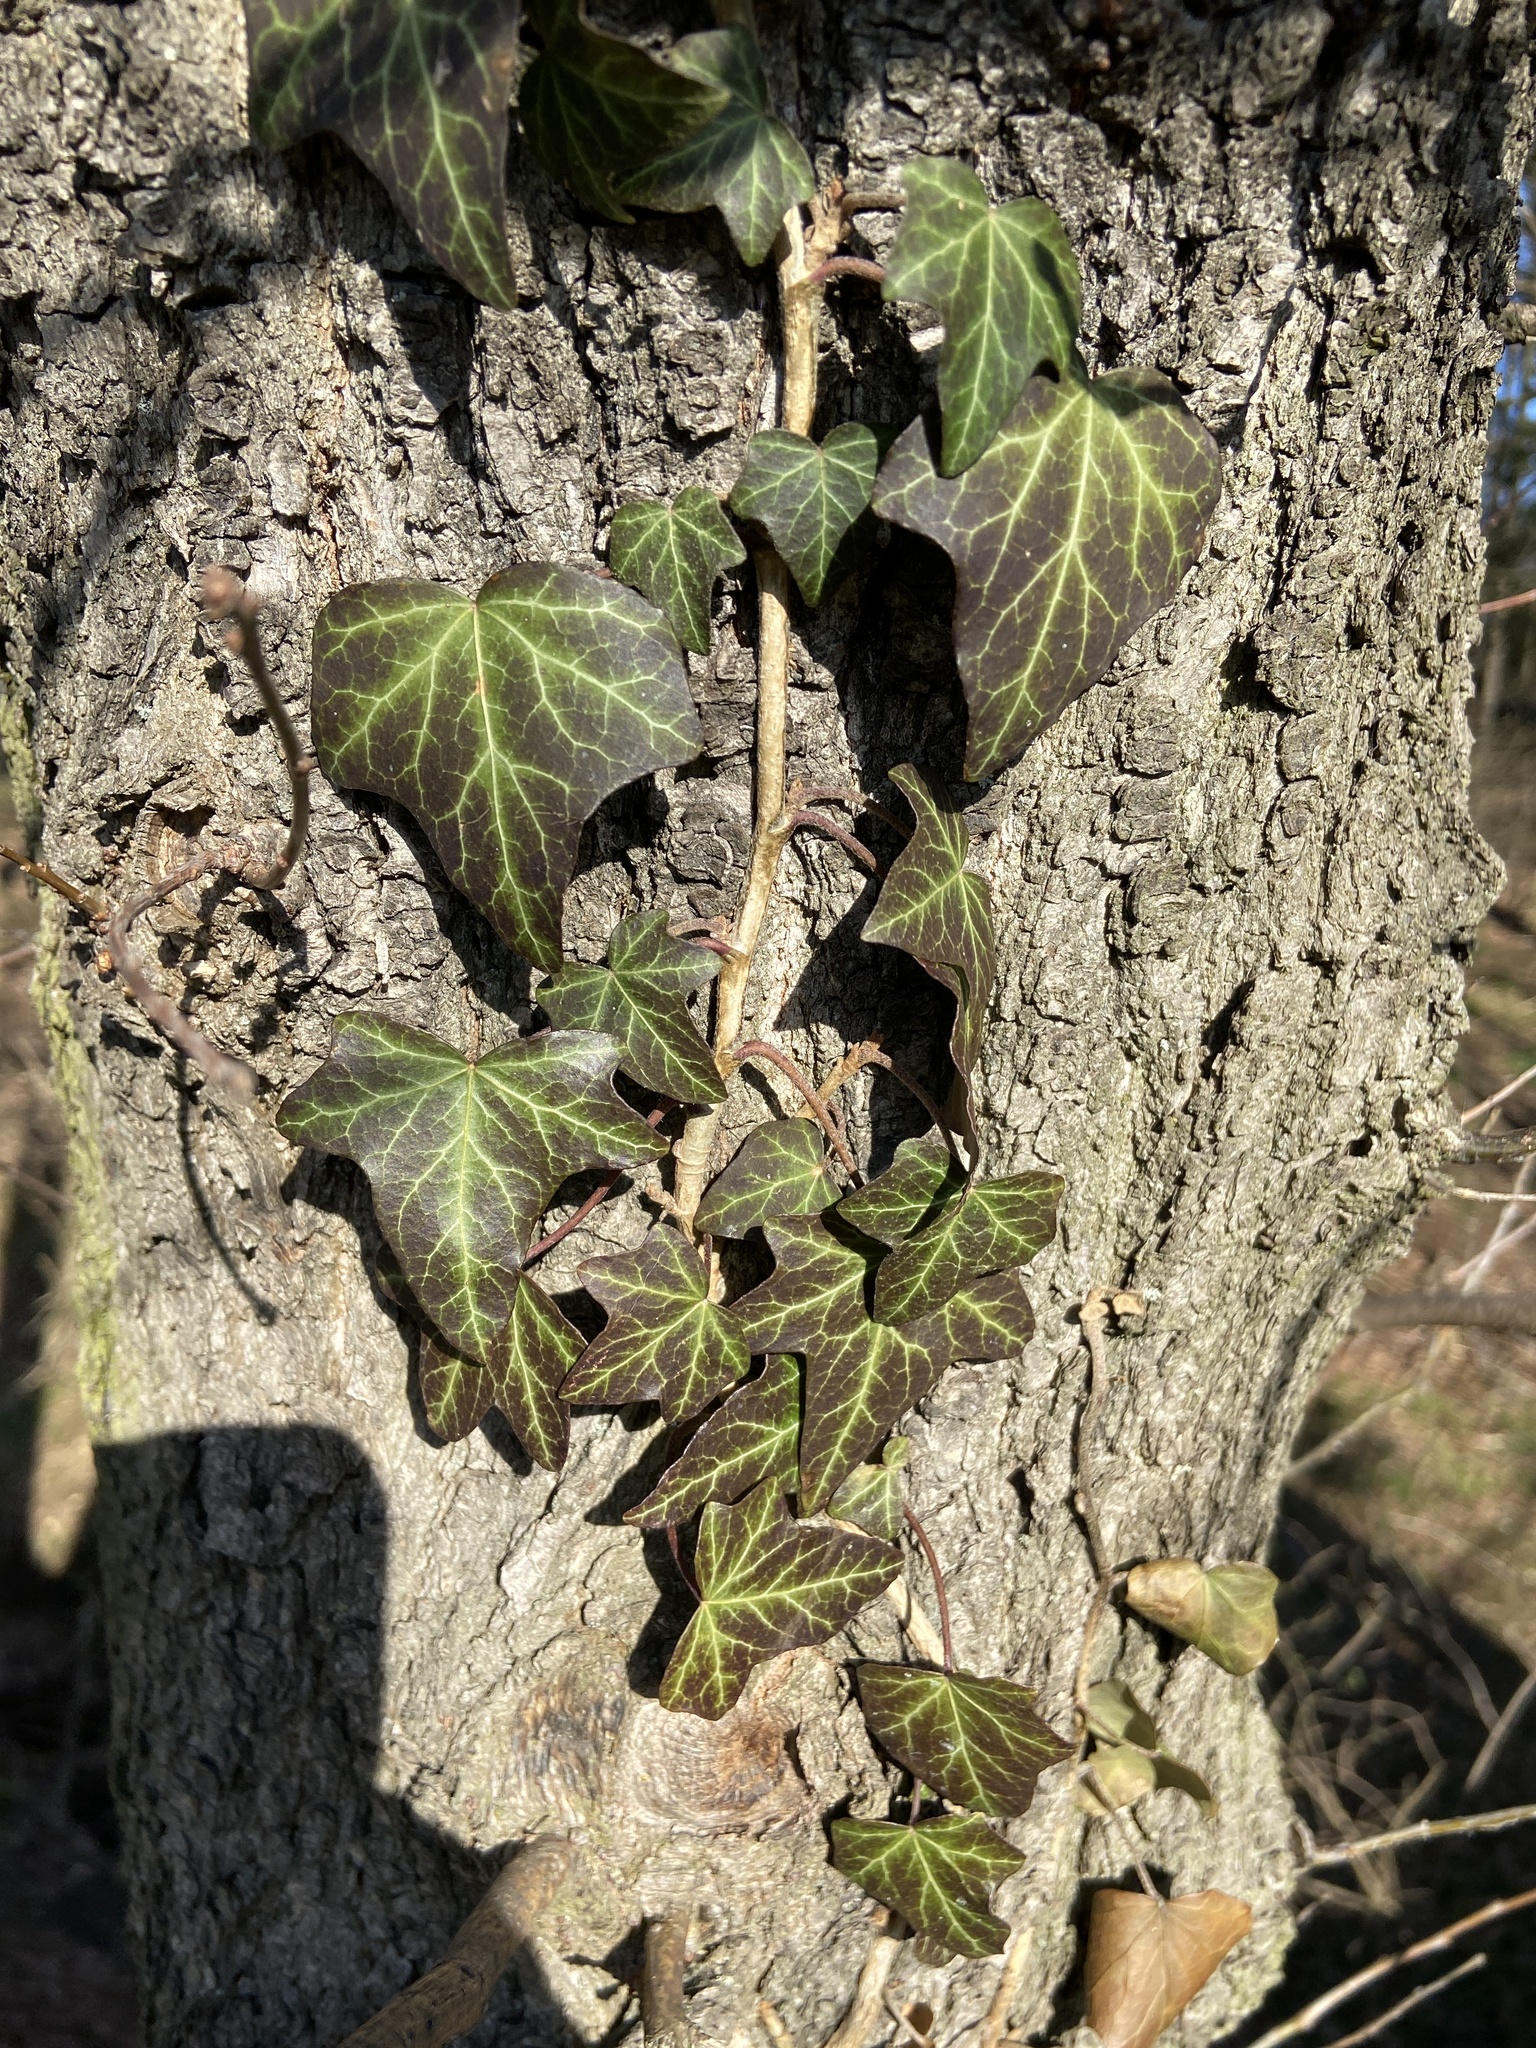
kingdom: Plantae
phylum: Tracheophyta
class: Magnoliopsida
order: Apiales
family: Araliaceae
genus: Hedera
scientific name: Hedera helix
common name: Ivy
